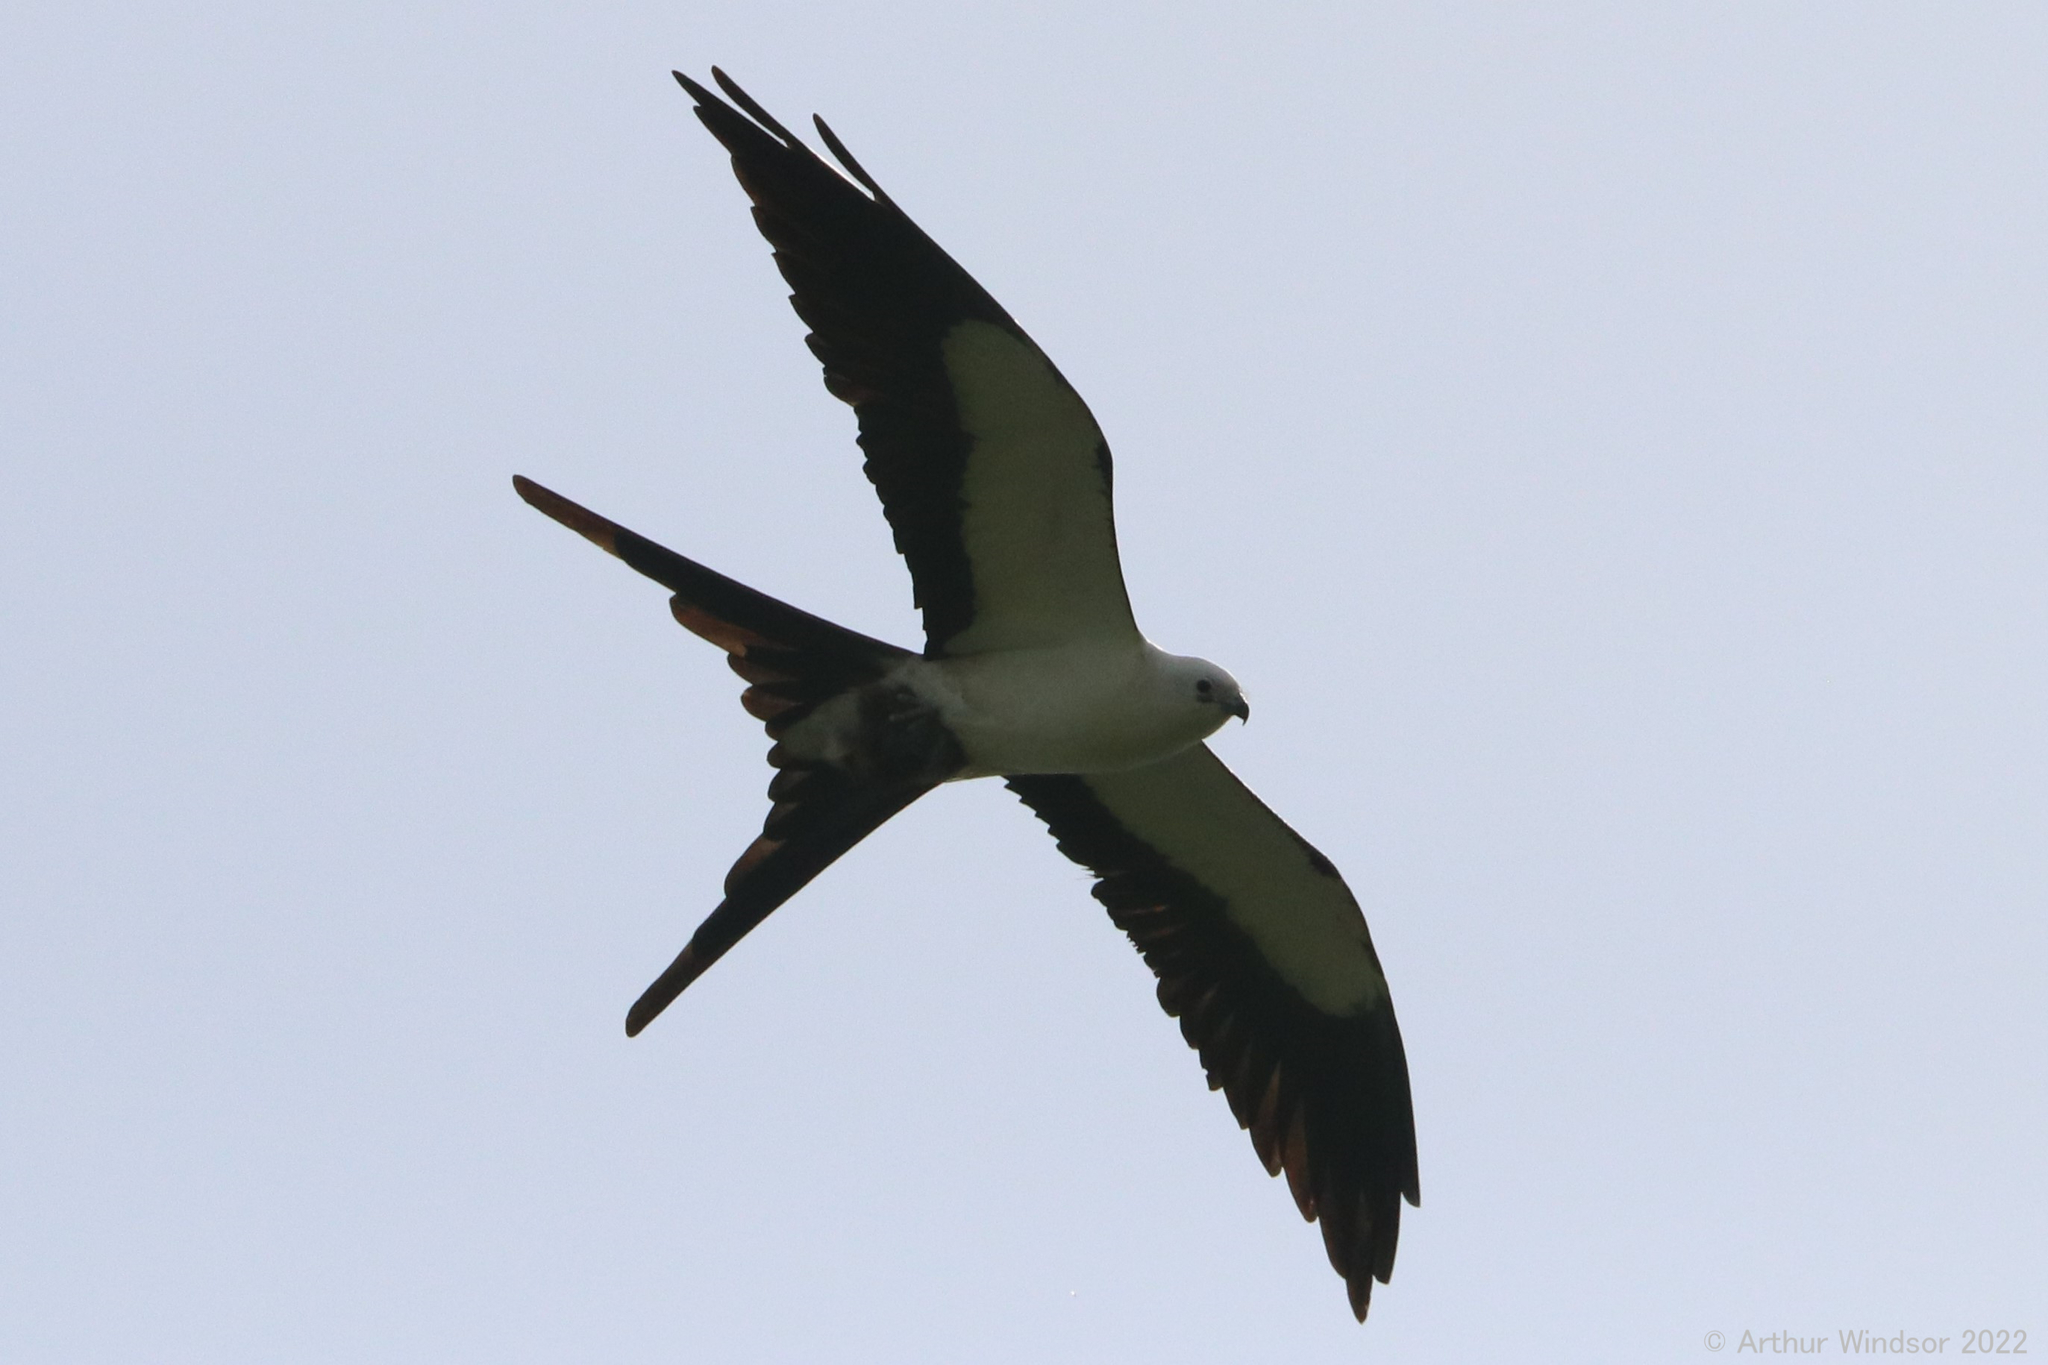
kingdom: Animalia
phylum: Chordata
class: Aves
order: Accipitriformes
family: Accipitridae
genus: Elanoides
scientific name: Elanoides forficatus
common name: Swallow-tailed kite
